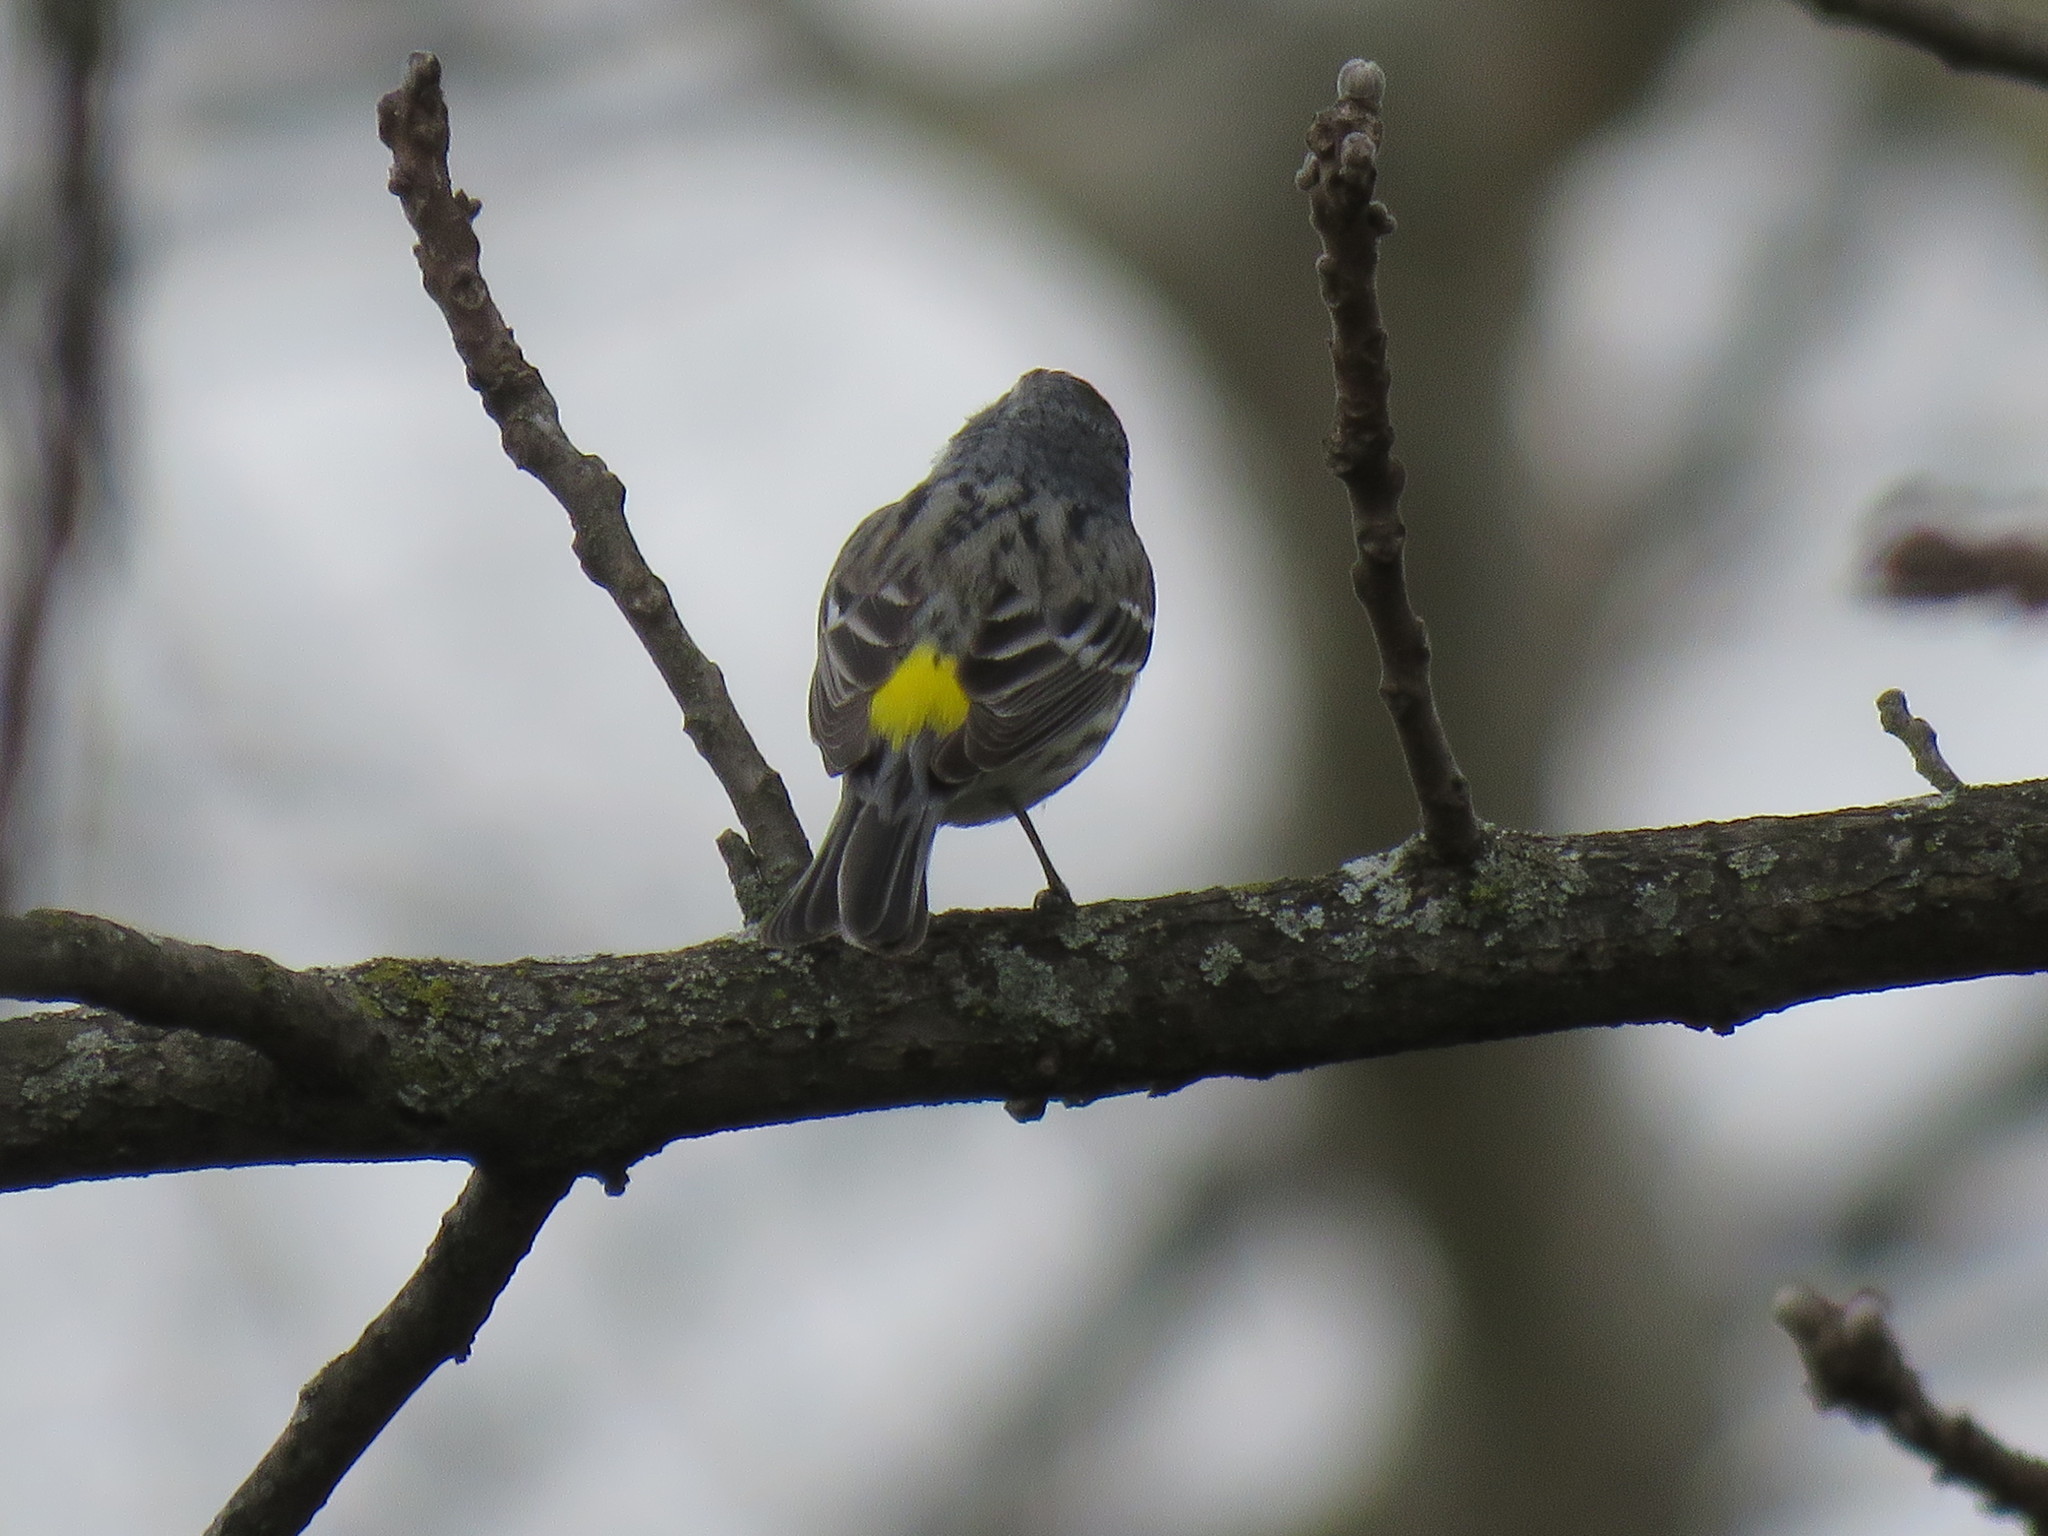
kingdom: Animalia
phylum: Chordata
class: Aves
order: Passeriformes
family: Parulidae
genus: Setophaga
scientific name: Setophaga coronata
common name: Myrtle warbler
